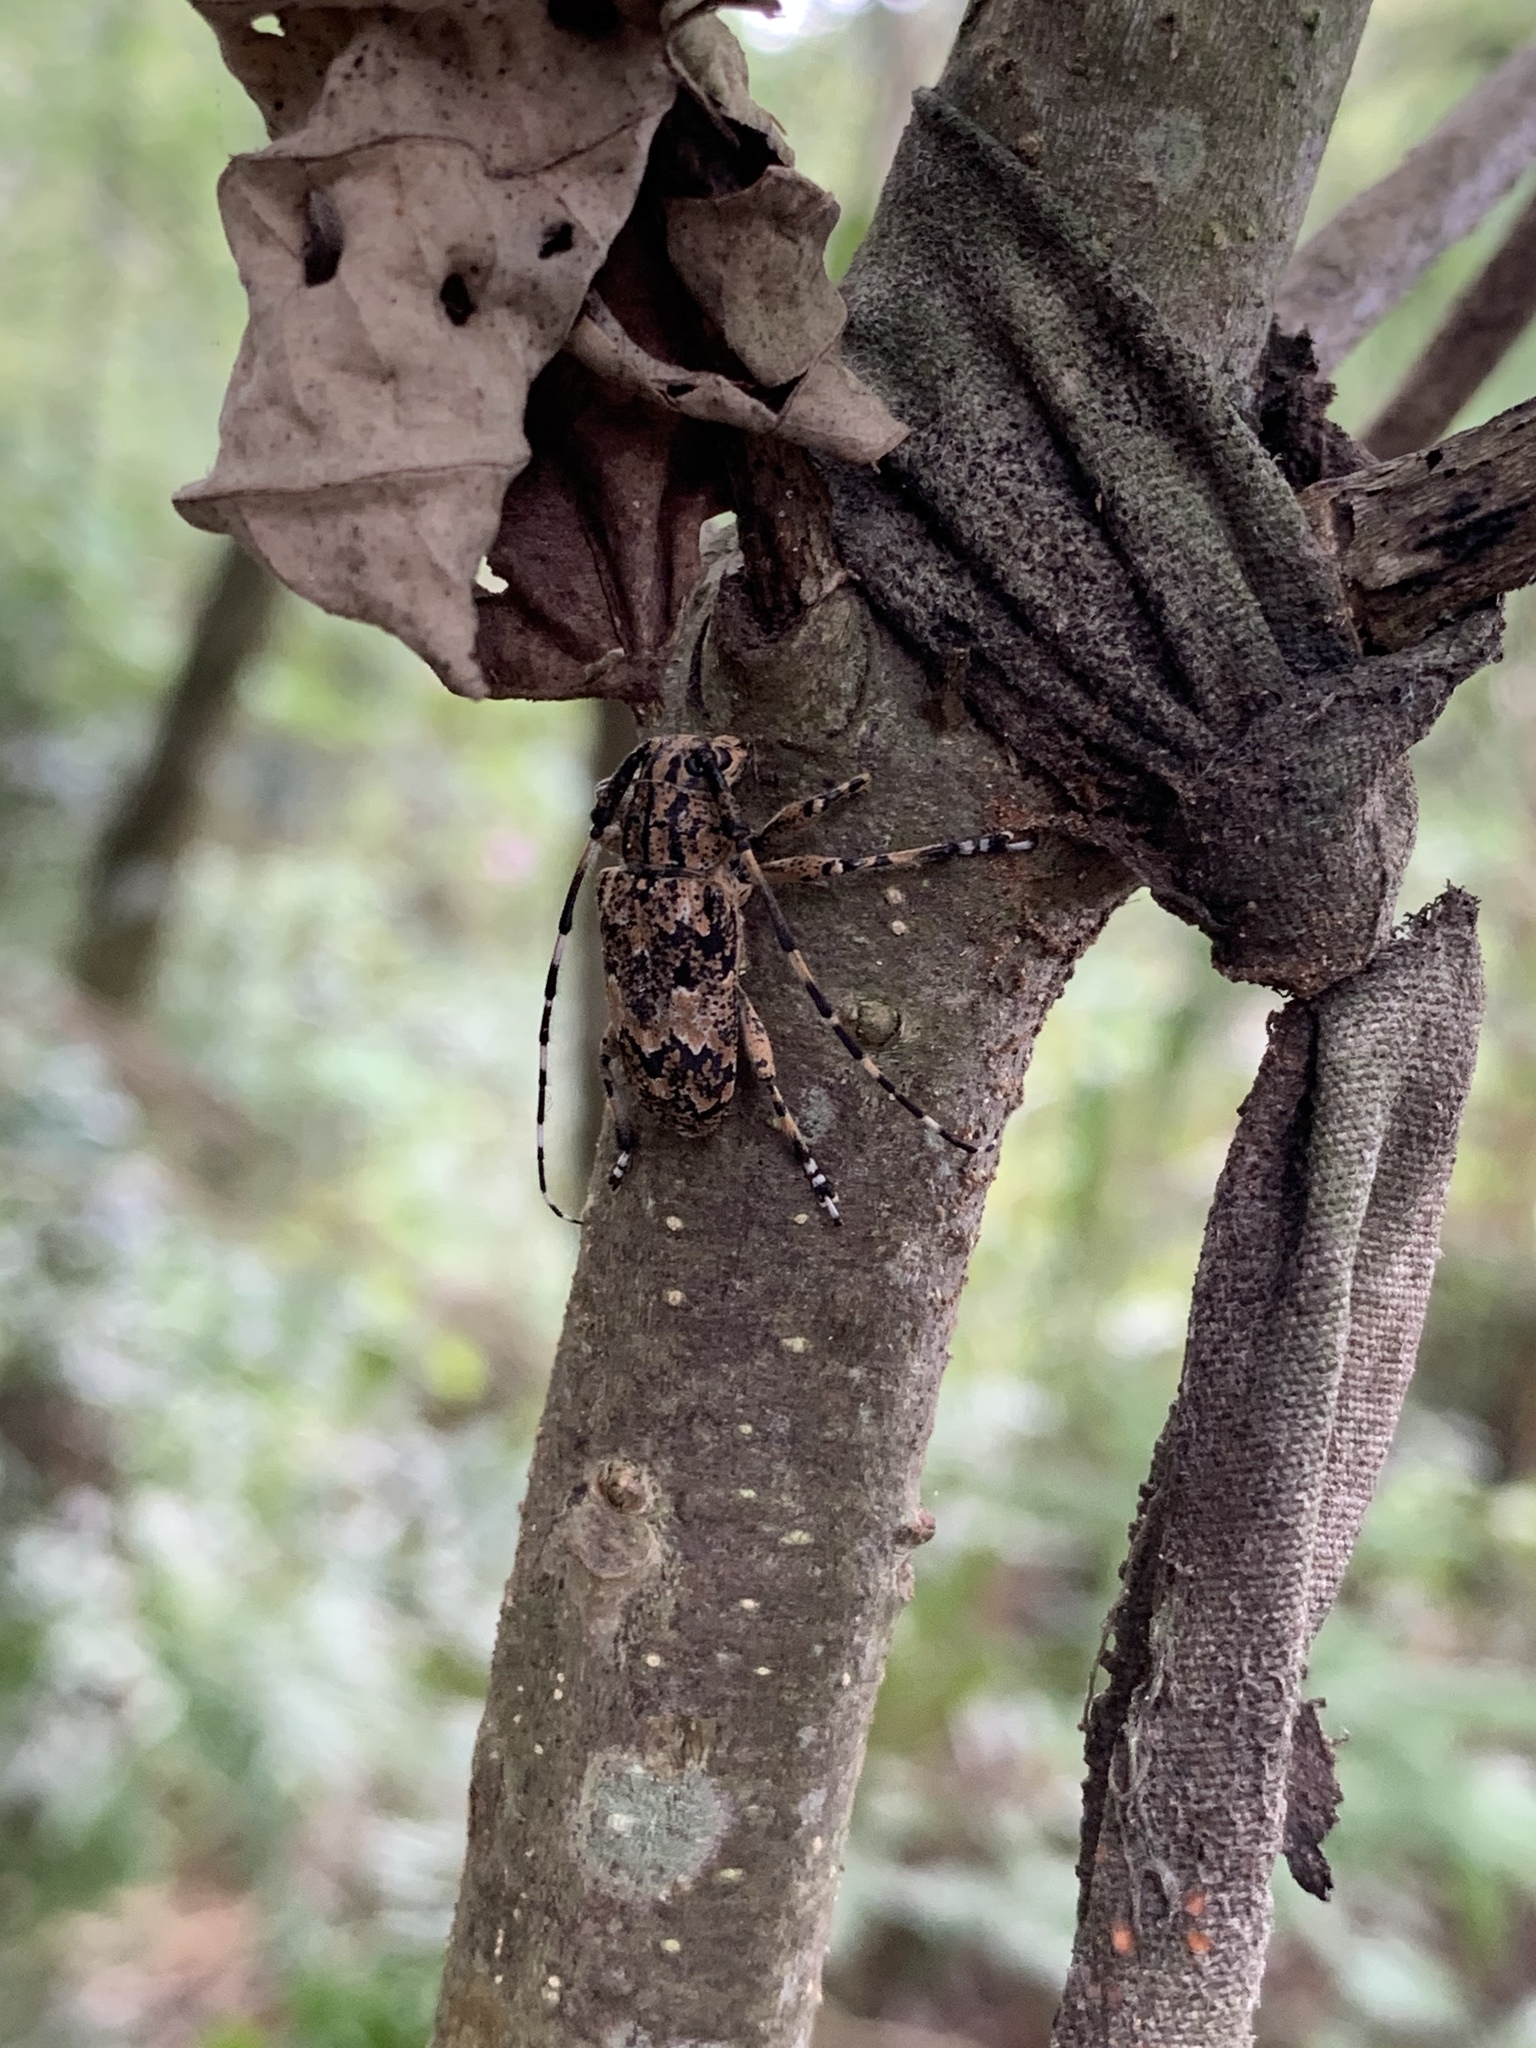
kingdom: Animalia
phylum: Arthropoda
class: Insecta
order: Coleoptera
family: Cerambycidae
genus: Agelasta
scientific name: Agelasta perplexa
